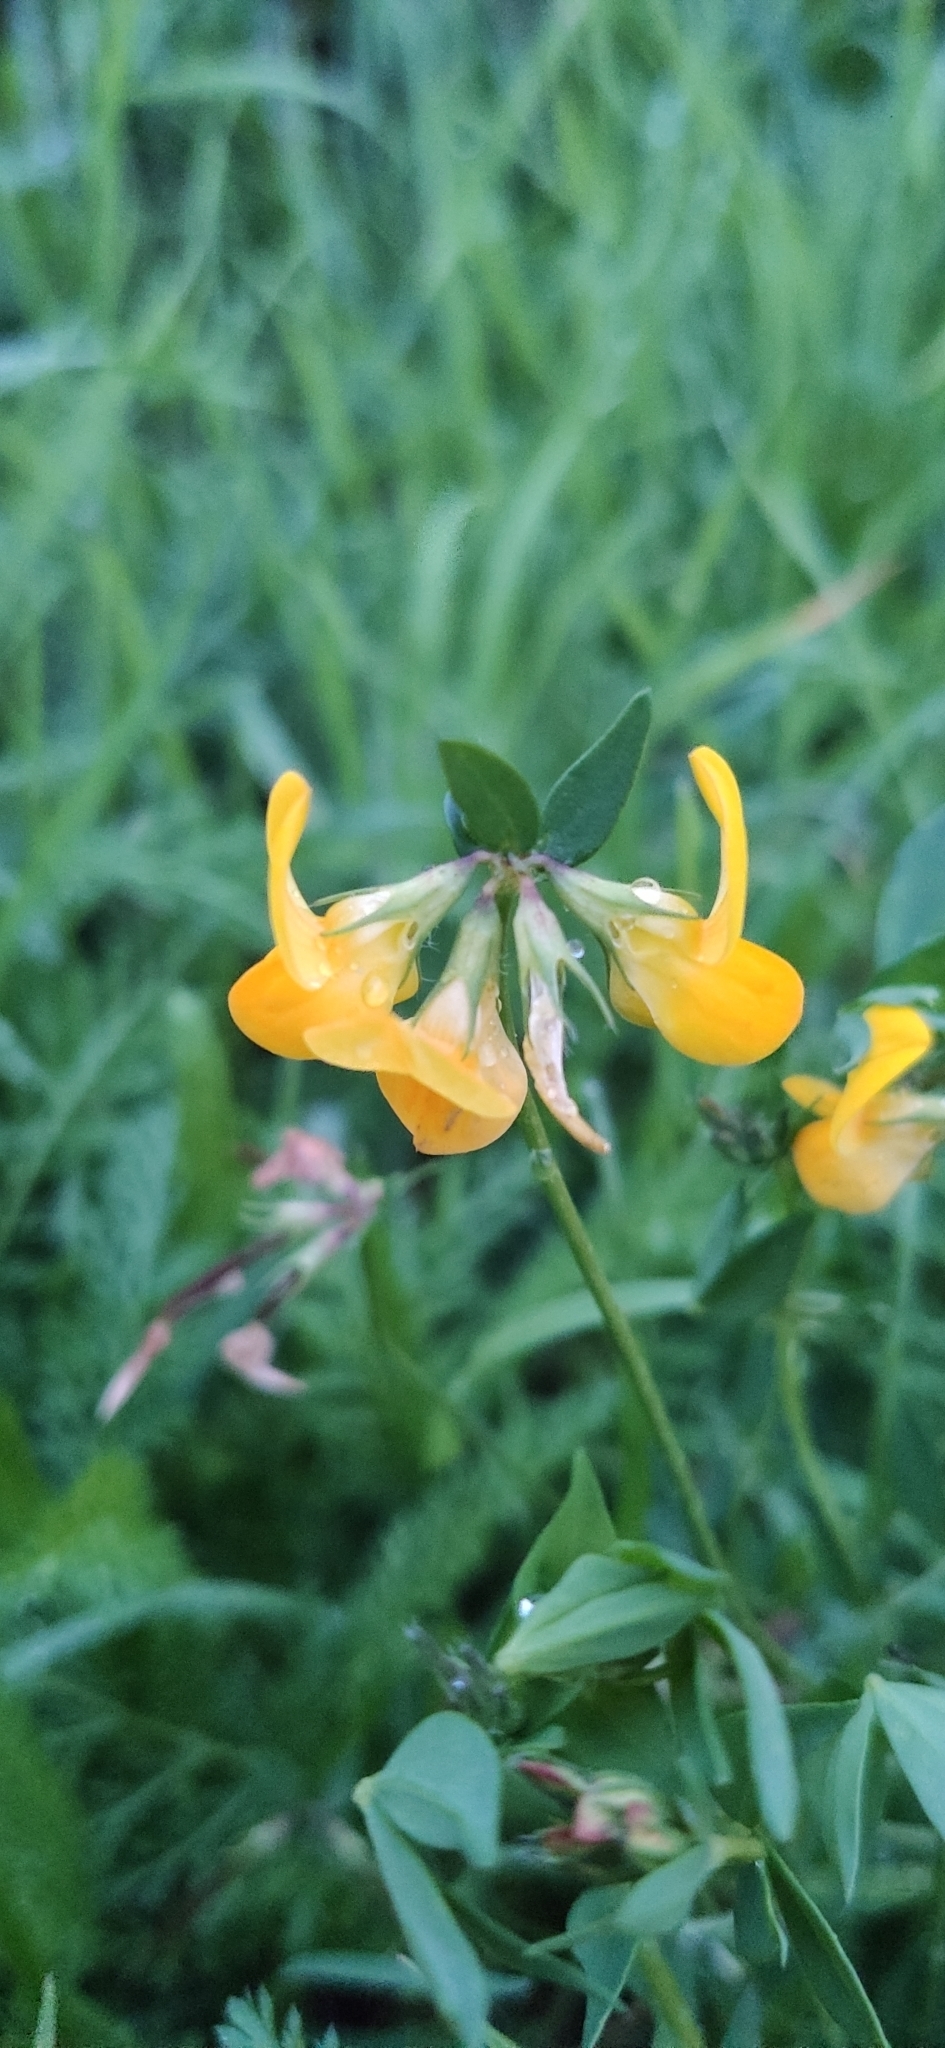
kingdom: Plantae
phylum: Tracheophyta
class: Magnoliopsida
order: Fabales
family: Fabaceae
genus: Lotus
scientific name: Lotus corniculatus
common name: Common bird's-foot-trefoil
